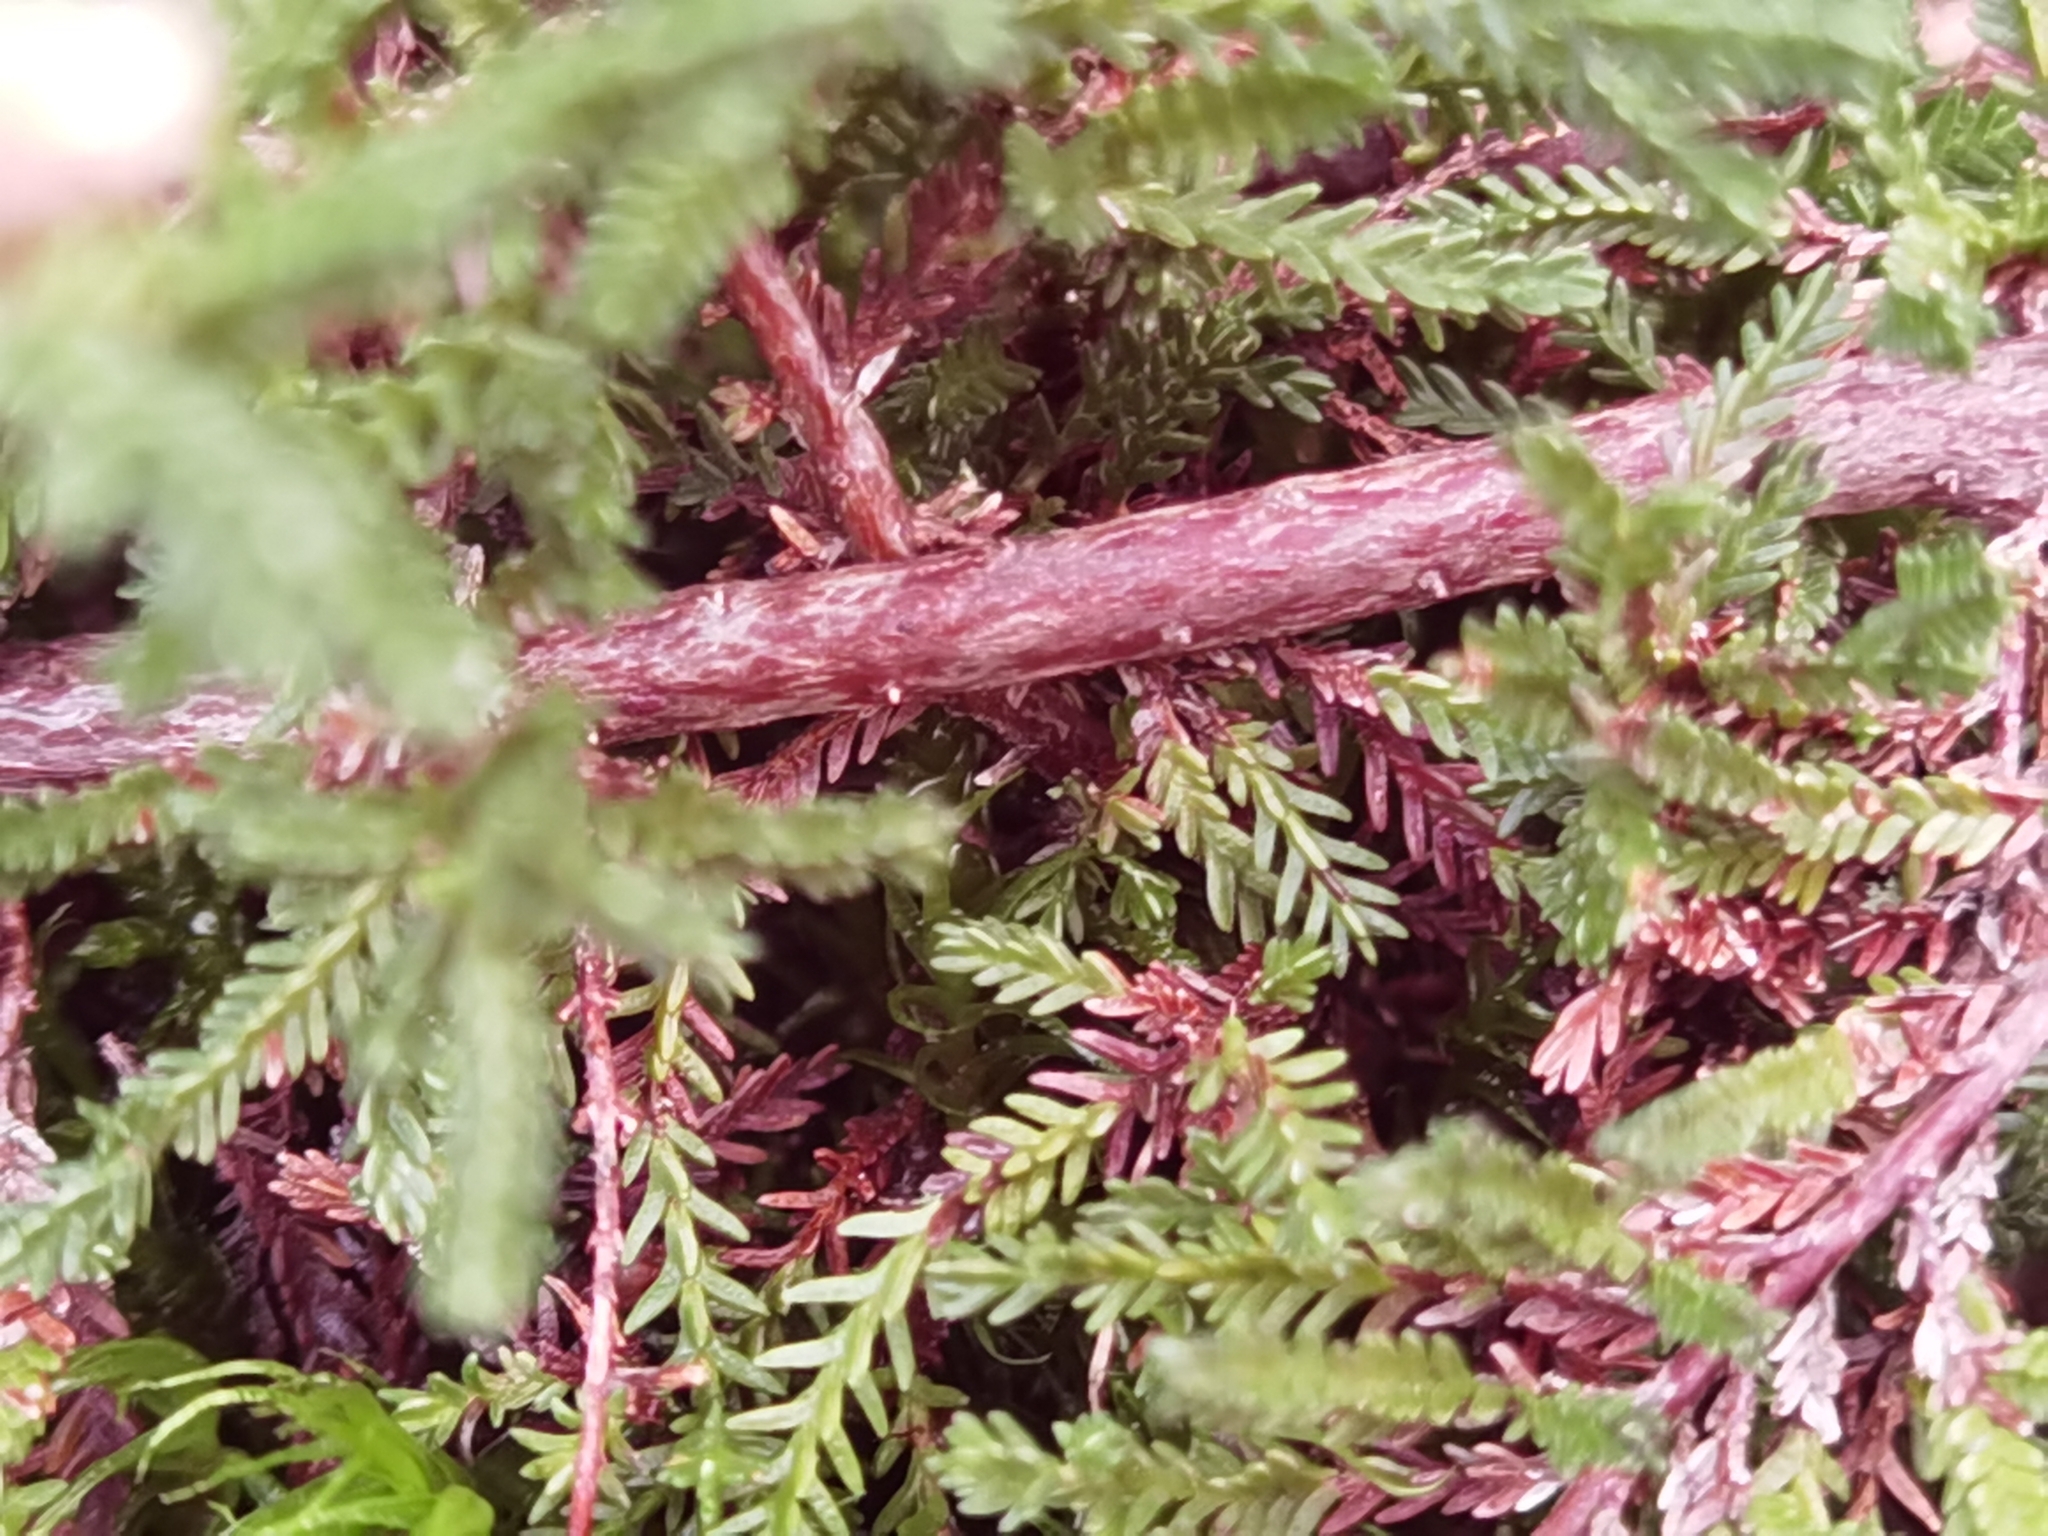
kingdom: Plantae
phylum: Tracheophyta
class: Magnoliopsida
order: Ericales
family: Ericaceae
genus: Calluna
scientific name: Calluna vulgaris
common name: Heather
